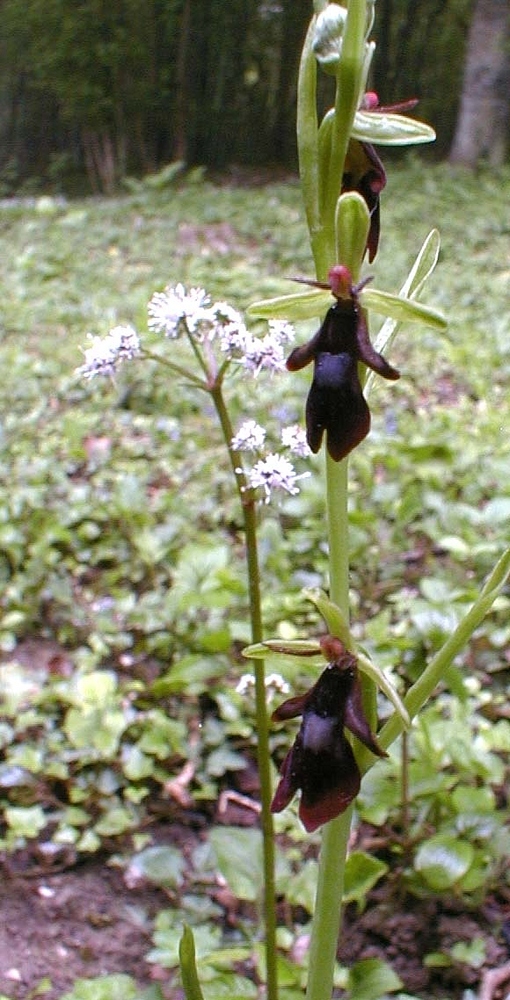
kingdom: Plantae
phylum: Tracheophyta
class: Liliopsida
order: Asparagales
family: Orchidaceae
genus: Ophrys
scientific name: Ophrys insectifera
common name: Fly orchid
